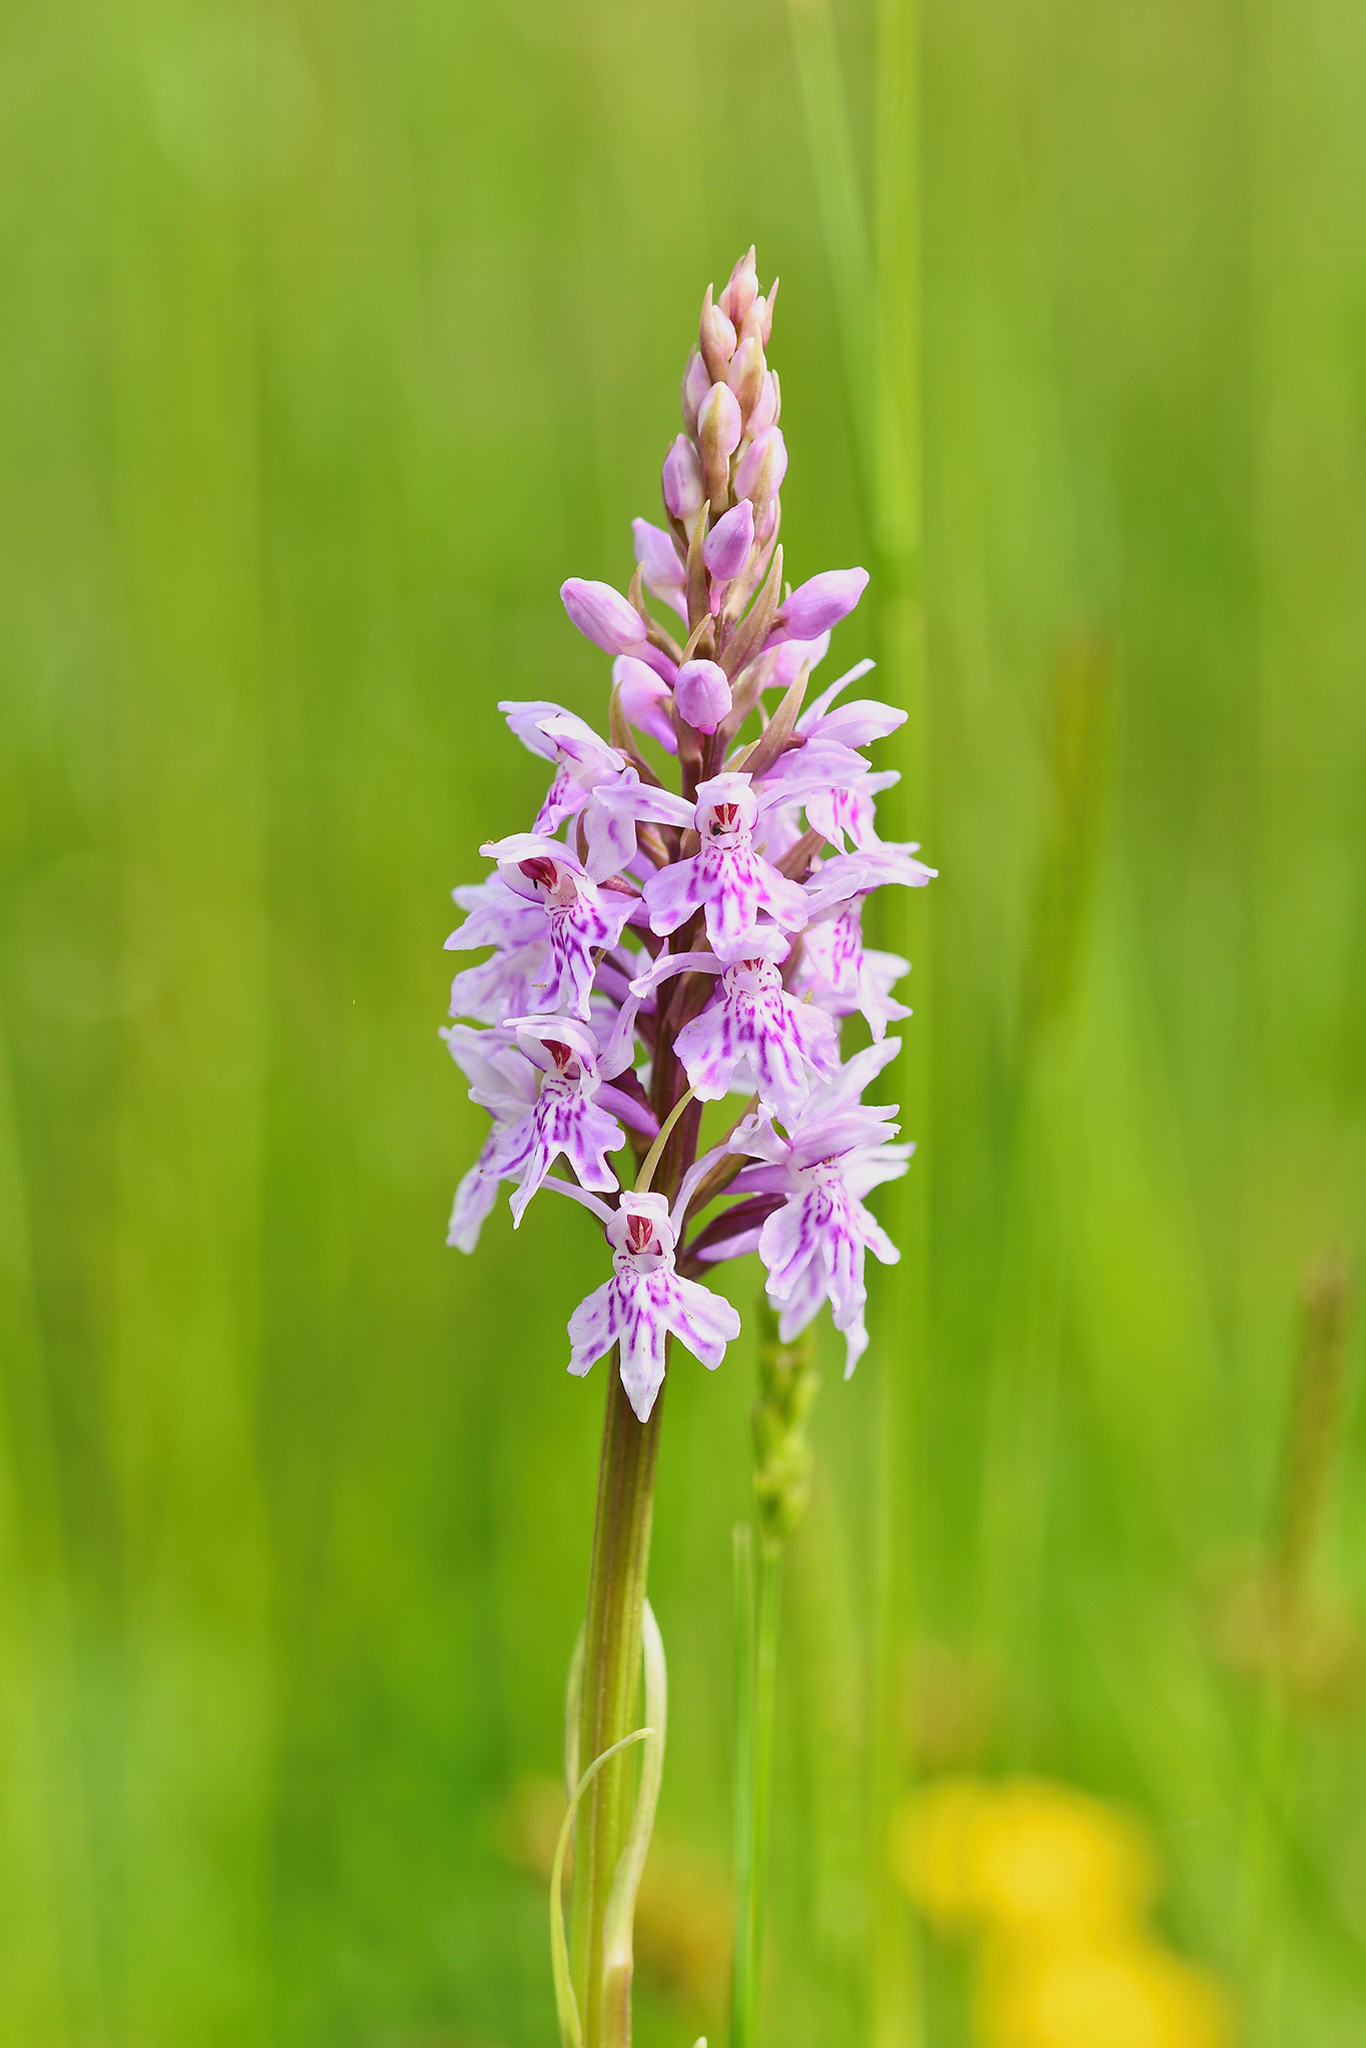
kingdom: Plantae
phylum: Tracheophyta
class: Liliopsida
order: Asparagales
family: Orchidaceae
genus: Dactylorhiza
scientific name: Dactylorhiza maculata
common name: Heath spotted-orchid
